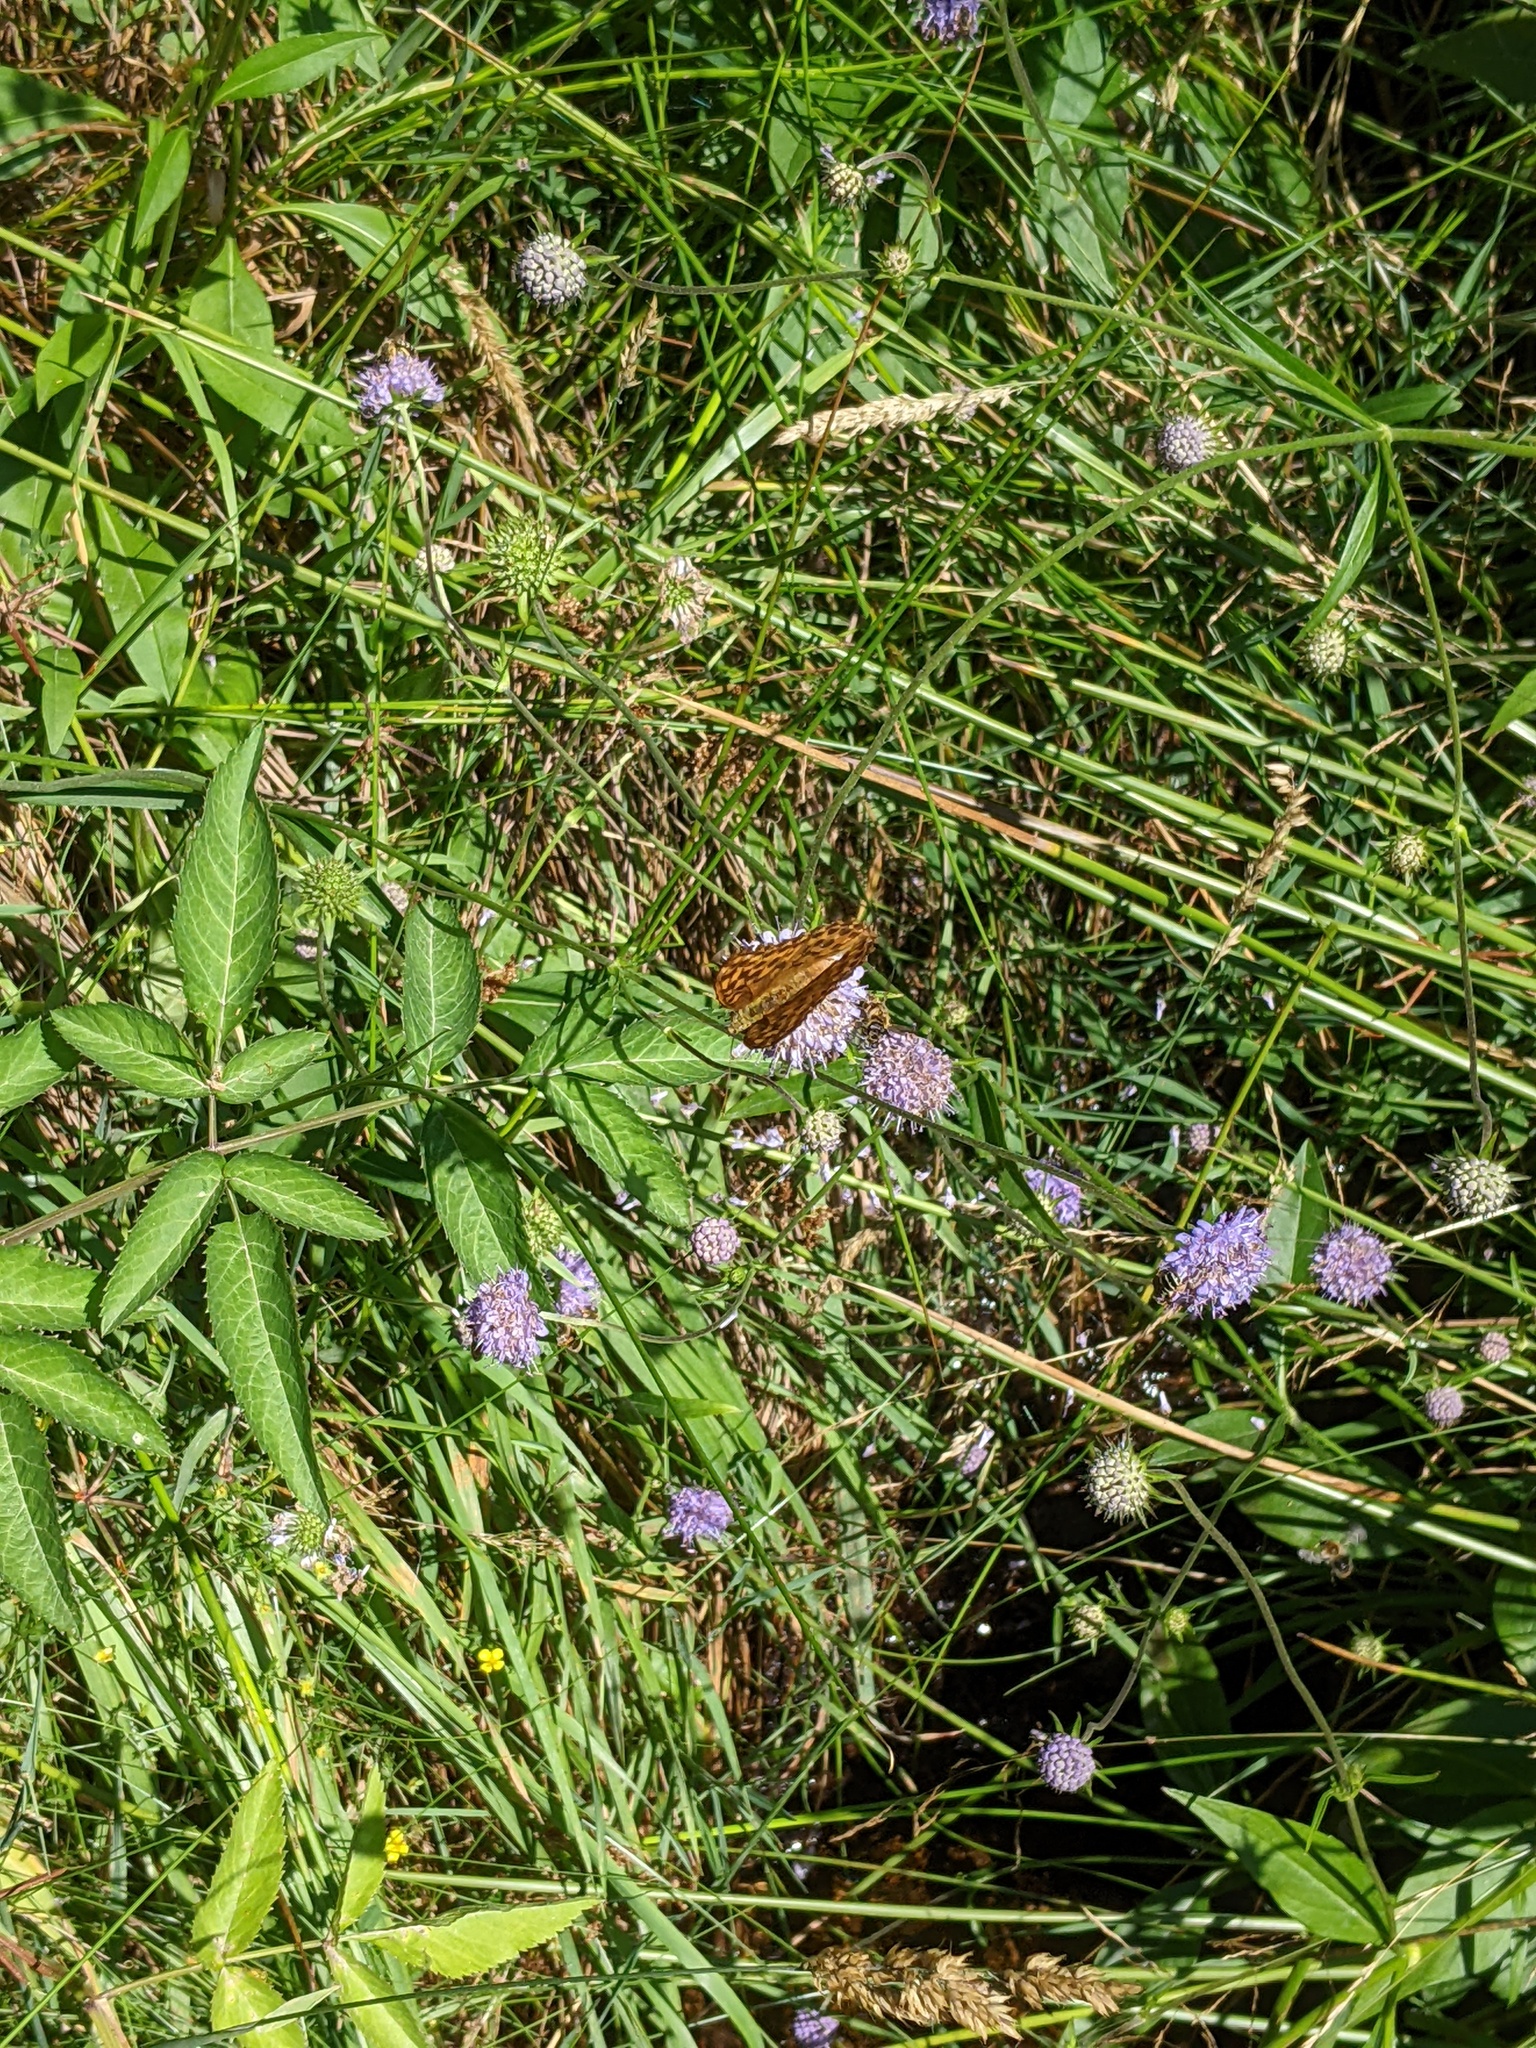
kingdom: Animalia
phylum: Arthropoda
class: Insecta
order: Lepidoptera
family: Nymphalidae
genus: Argynnis
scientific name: Argynnis paphia
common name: Silver-washed fritillary
